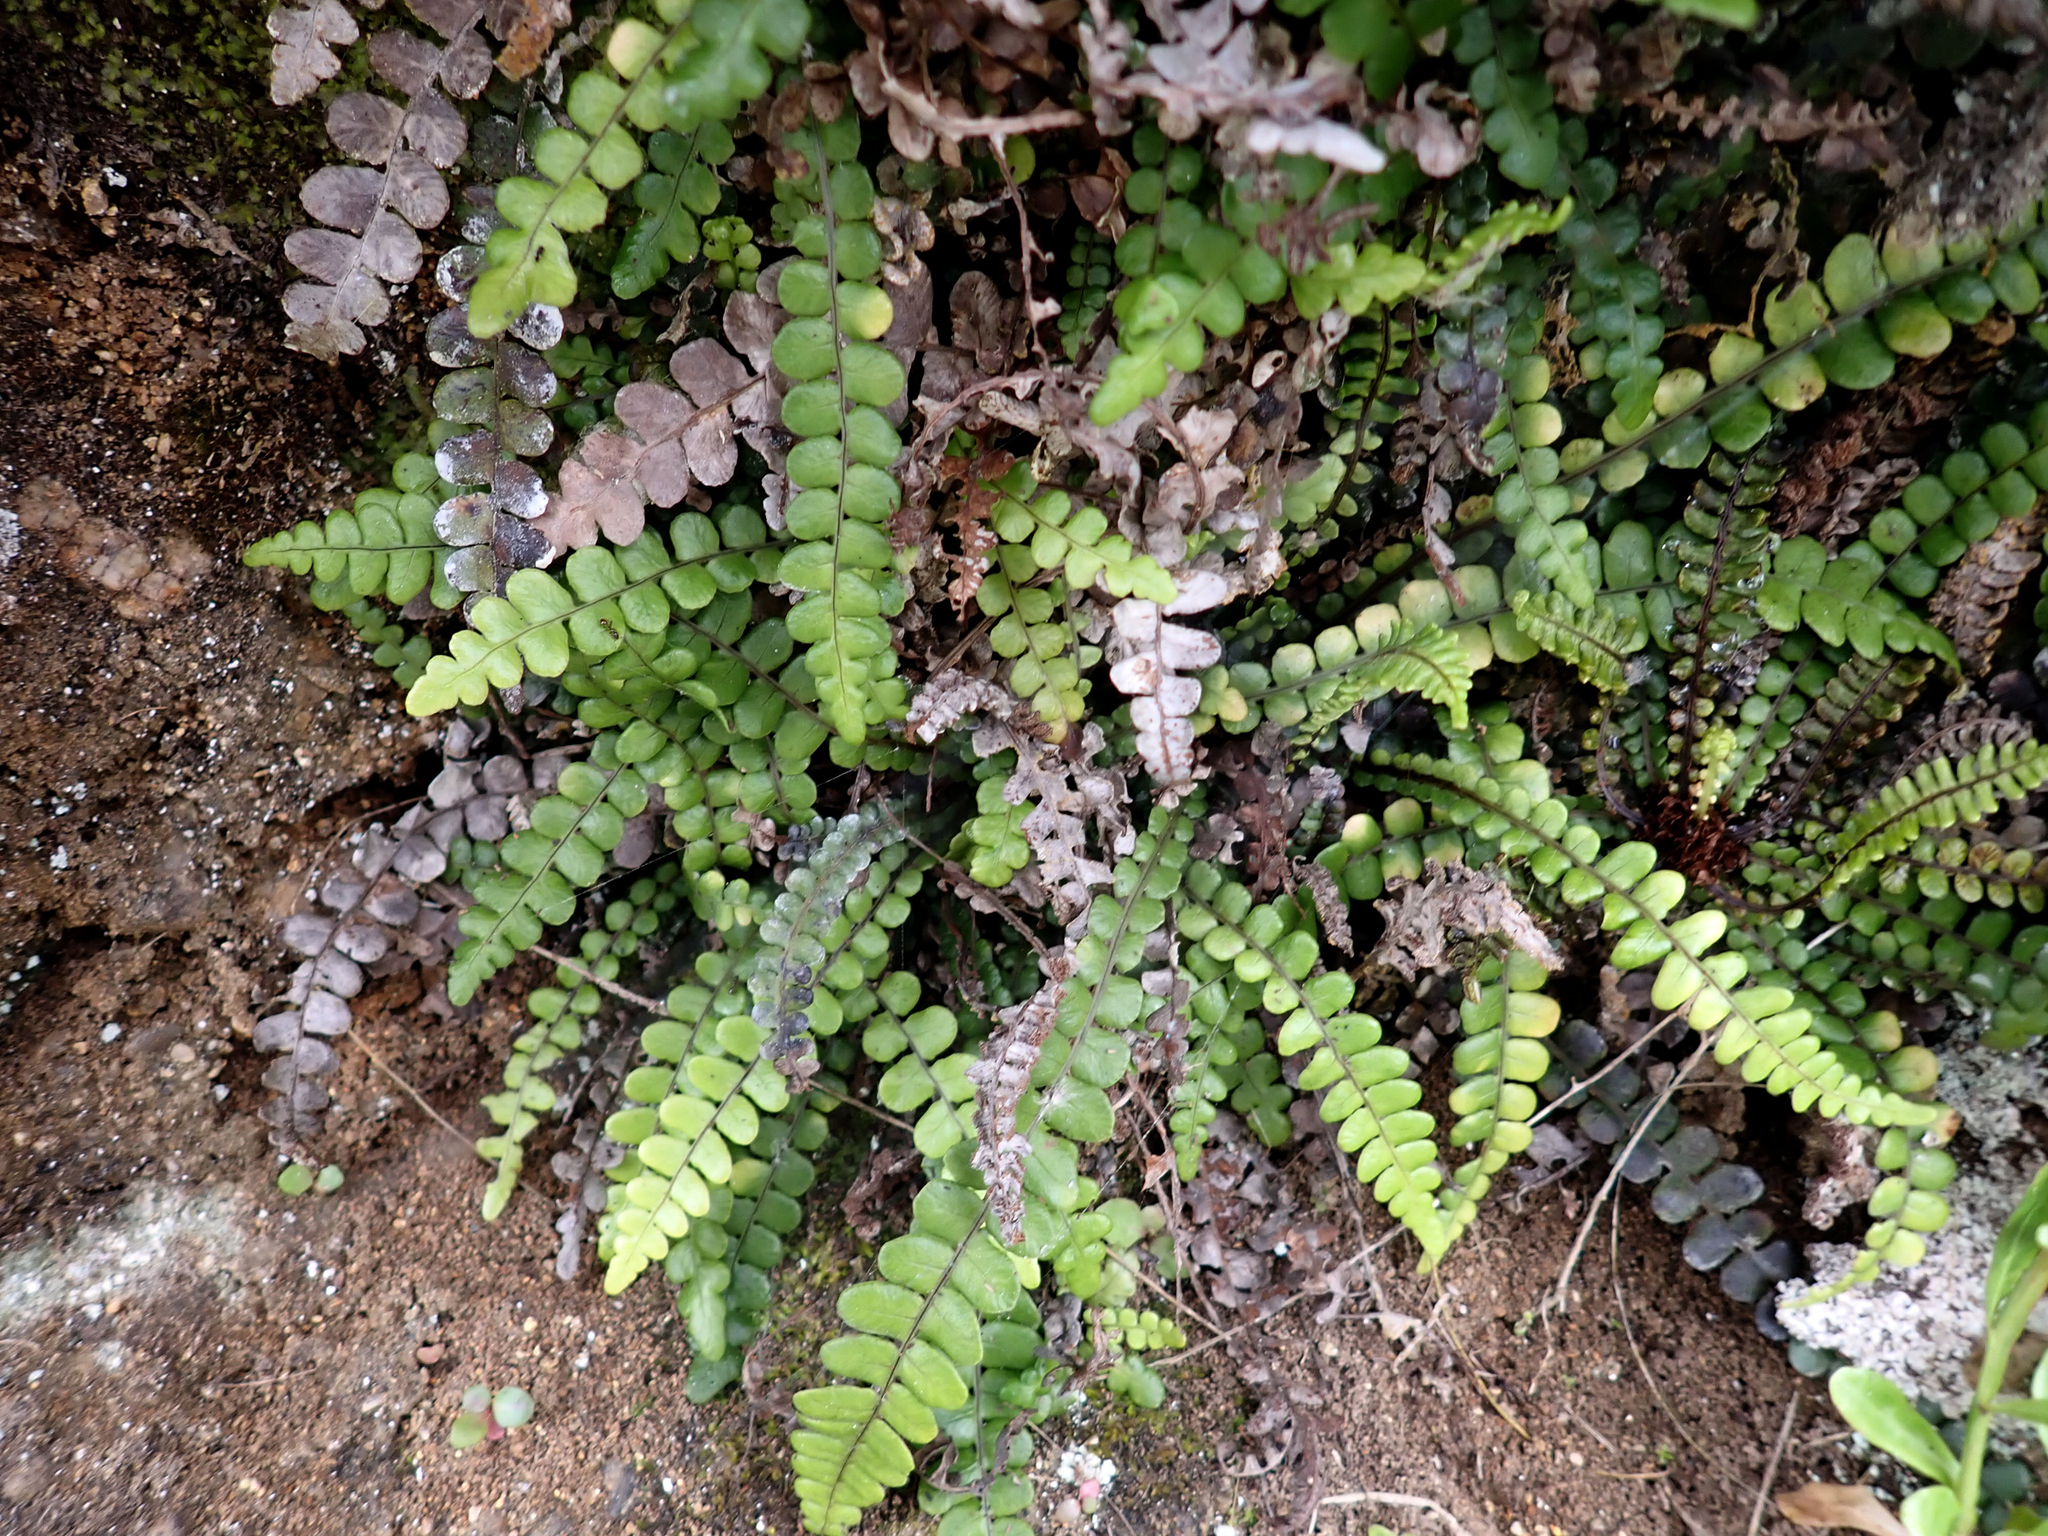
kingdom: Plantae
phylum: Tracheophyta
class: Polypodiopsida
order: Polypodiales
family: Blechnaceae
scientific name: Blechnaceae
